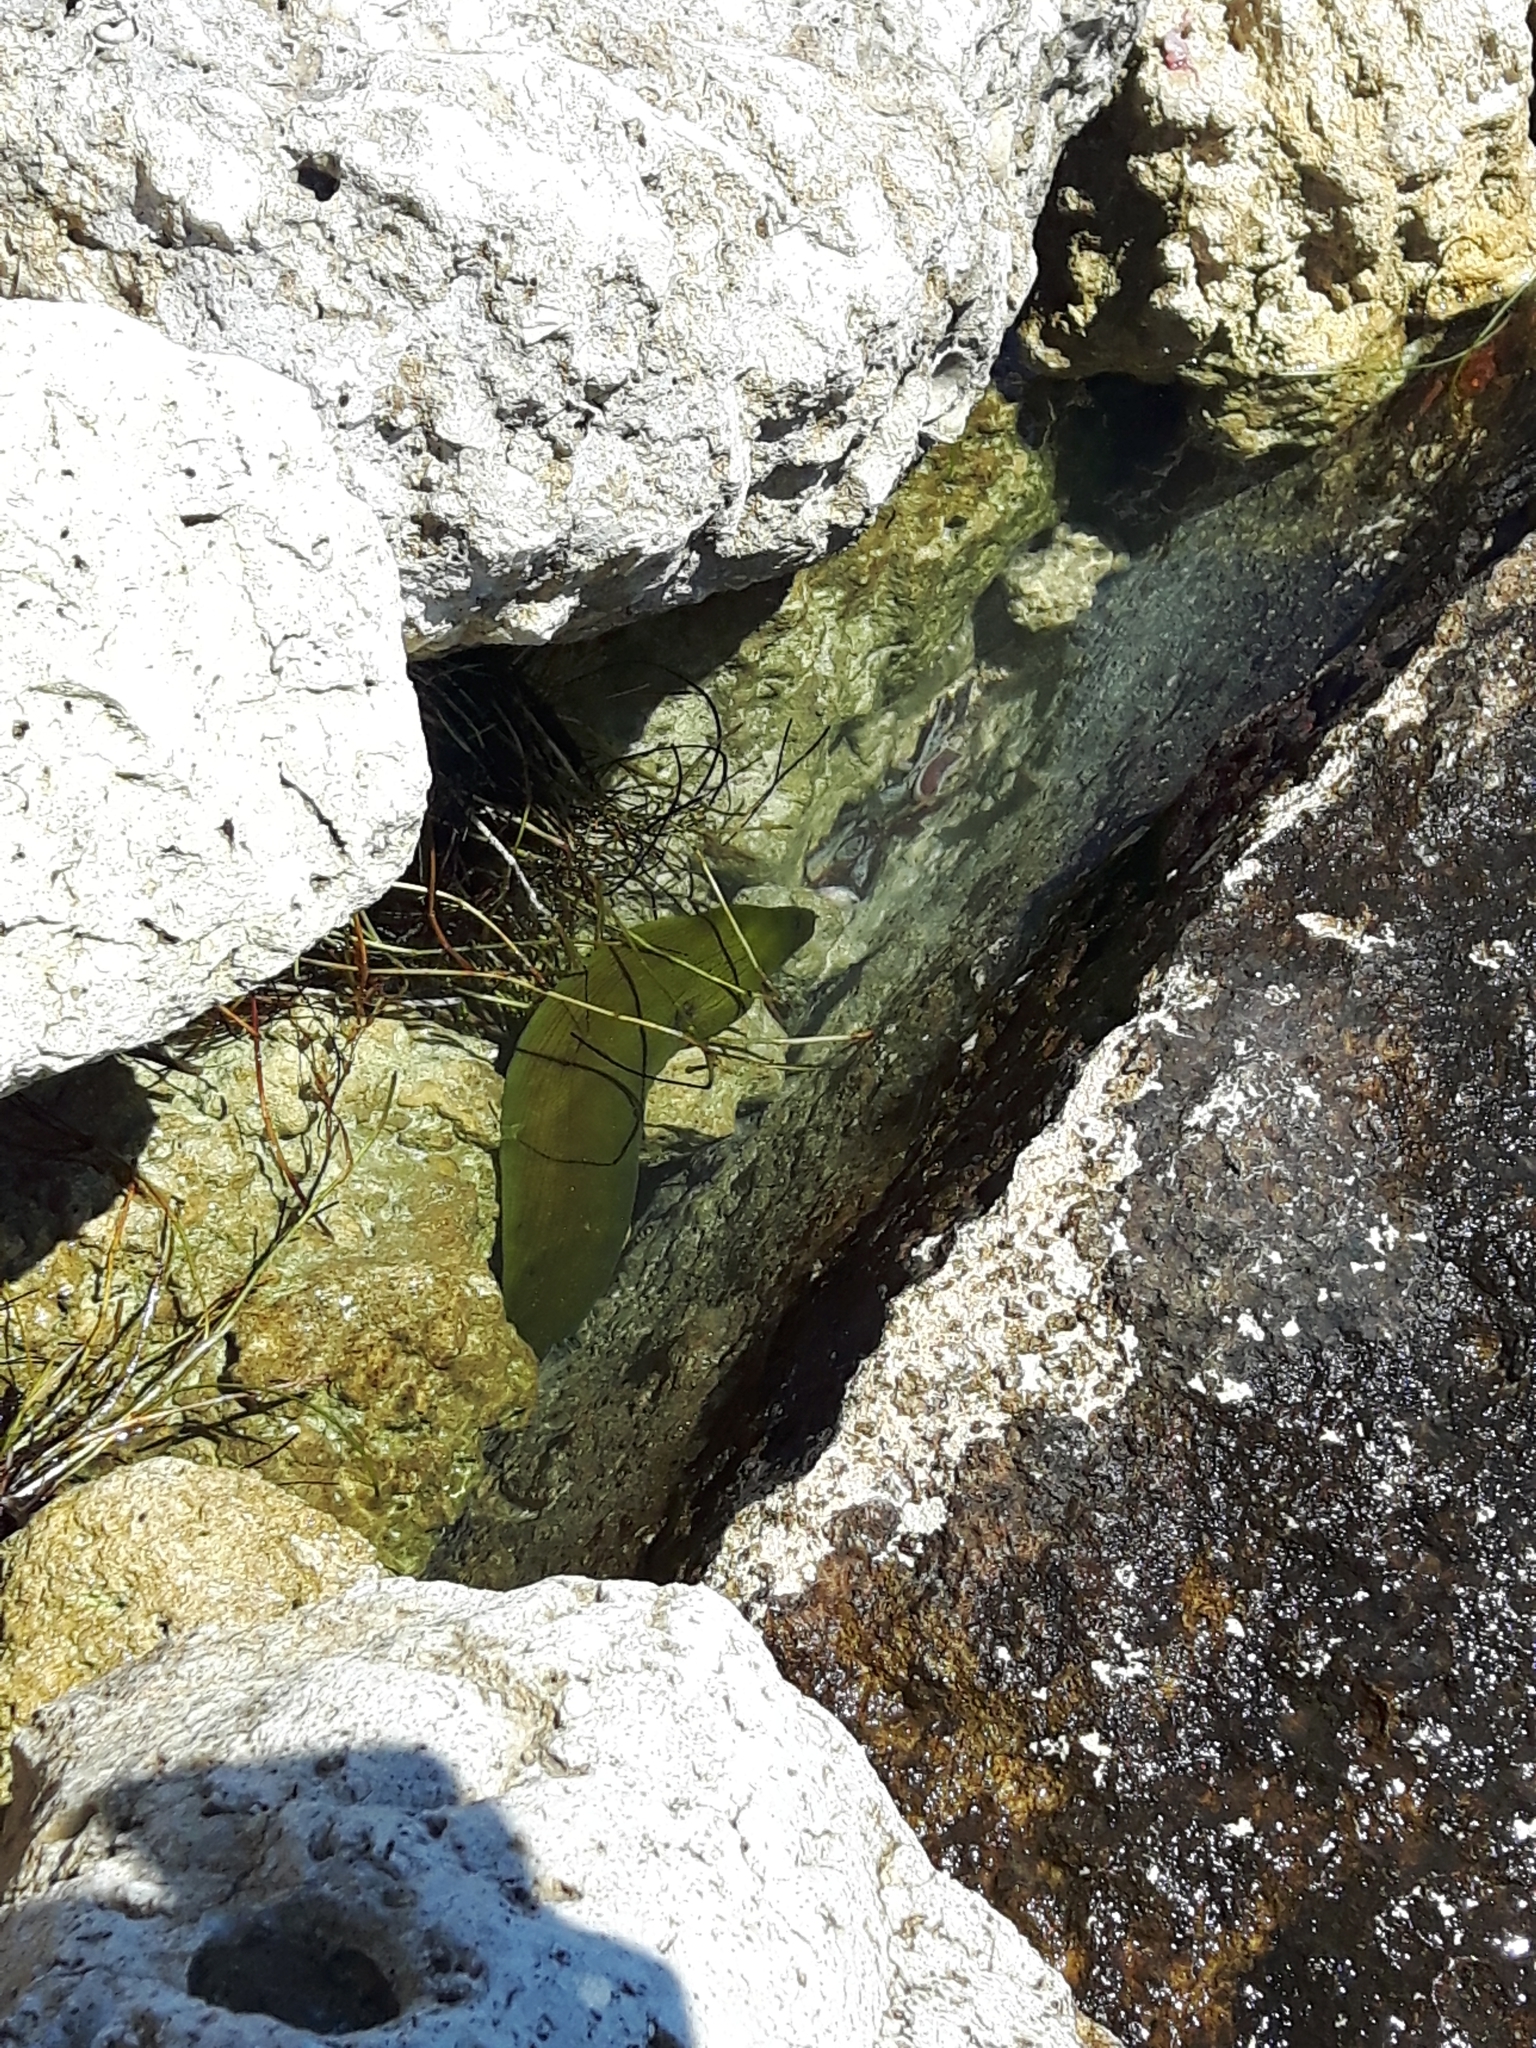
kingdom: Animalia
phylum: Chordata
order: Anguilliformes
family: Muraenidae
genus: Gymnothorax
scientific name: Gymnothorax funebris
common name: Green moray
